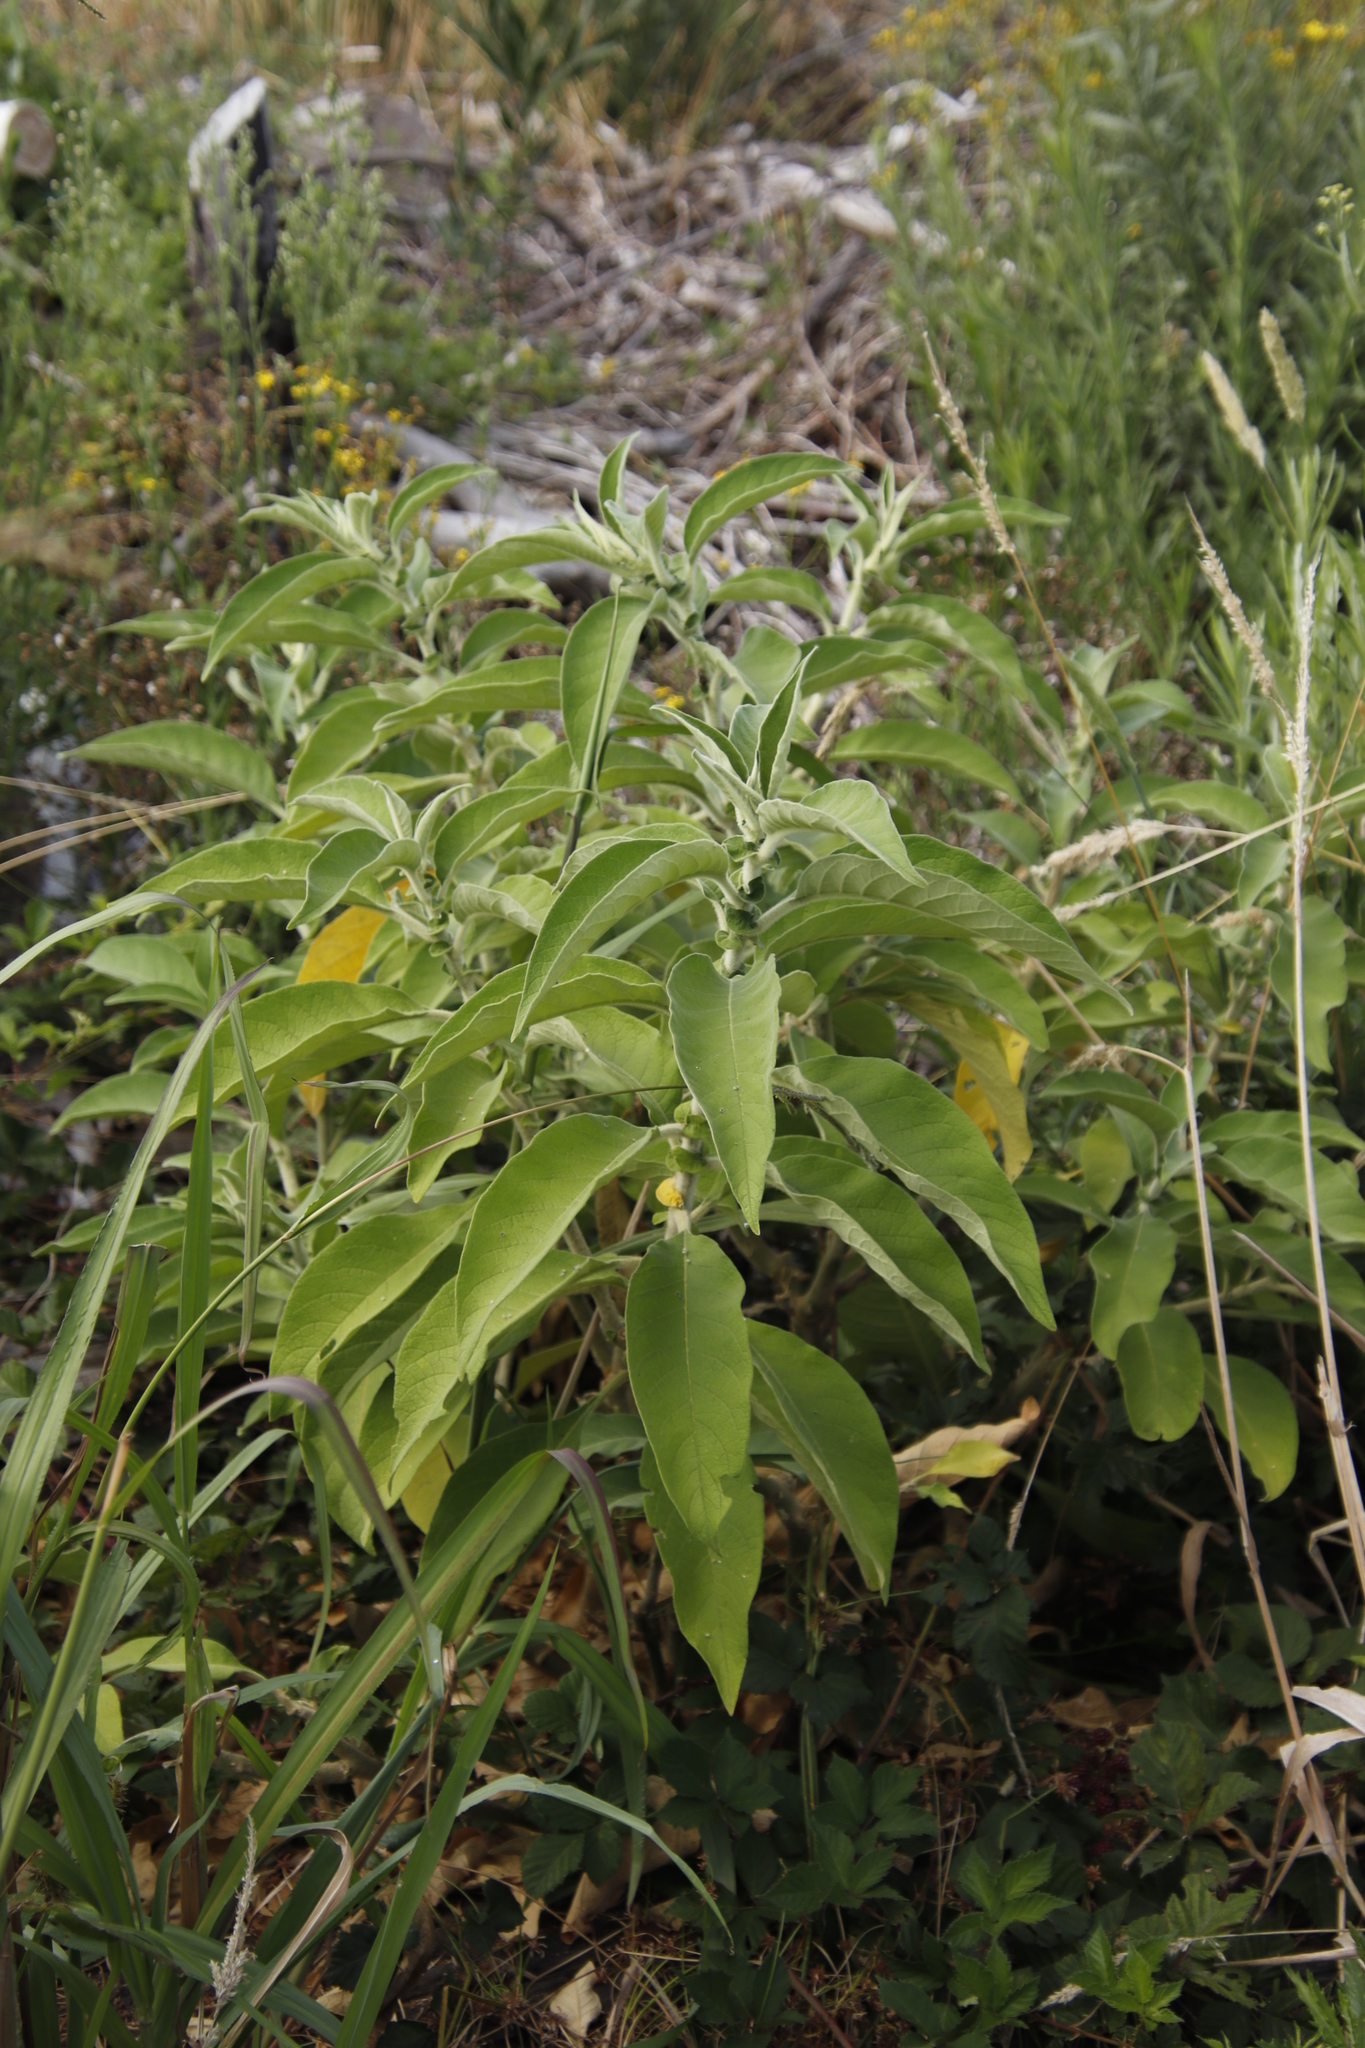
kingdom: Plantae
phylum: Tracheophyta
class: Magnoliopsida
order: Solanales
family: Solanaceae
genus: Solanum
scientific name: Solanum mauritianum
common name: Earleaf nightshade
